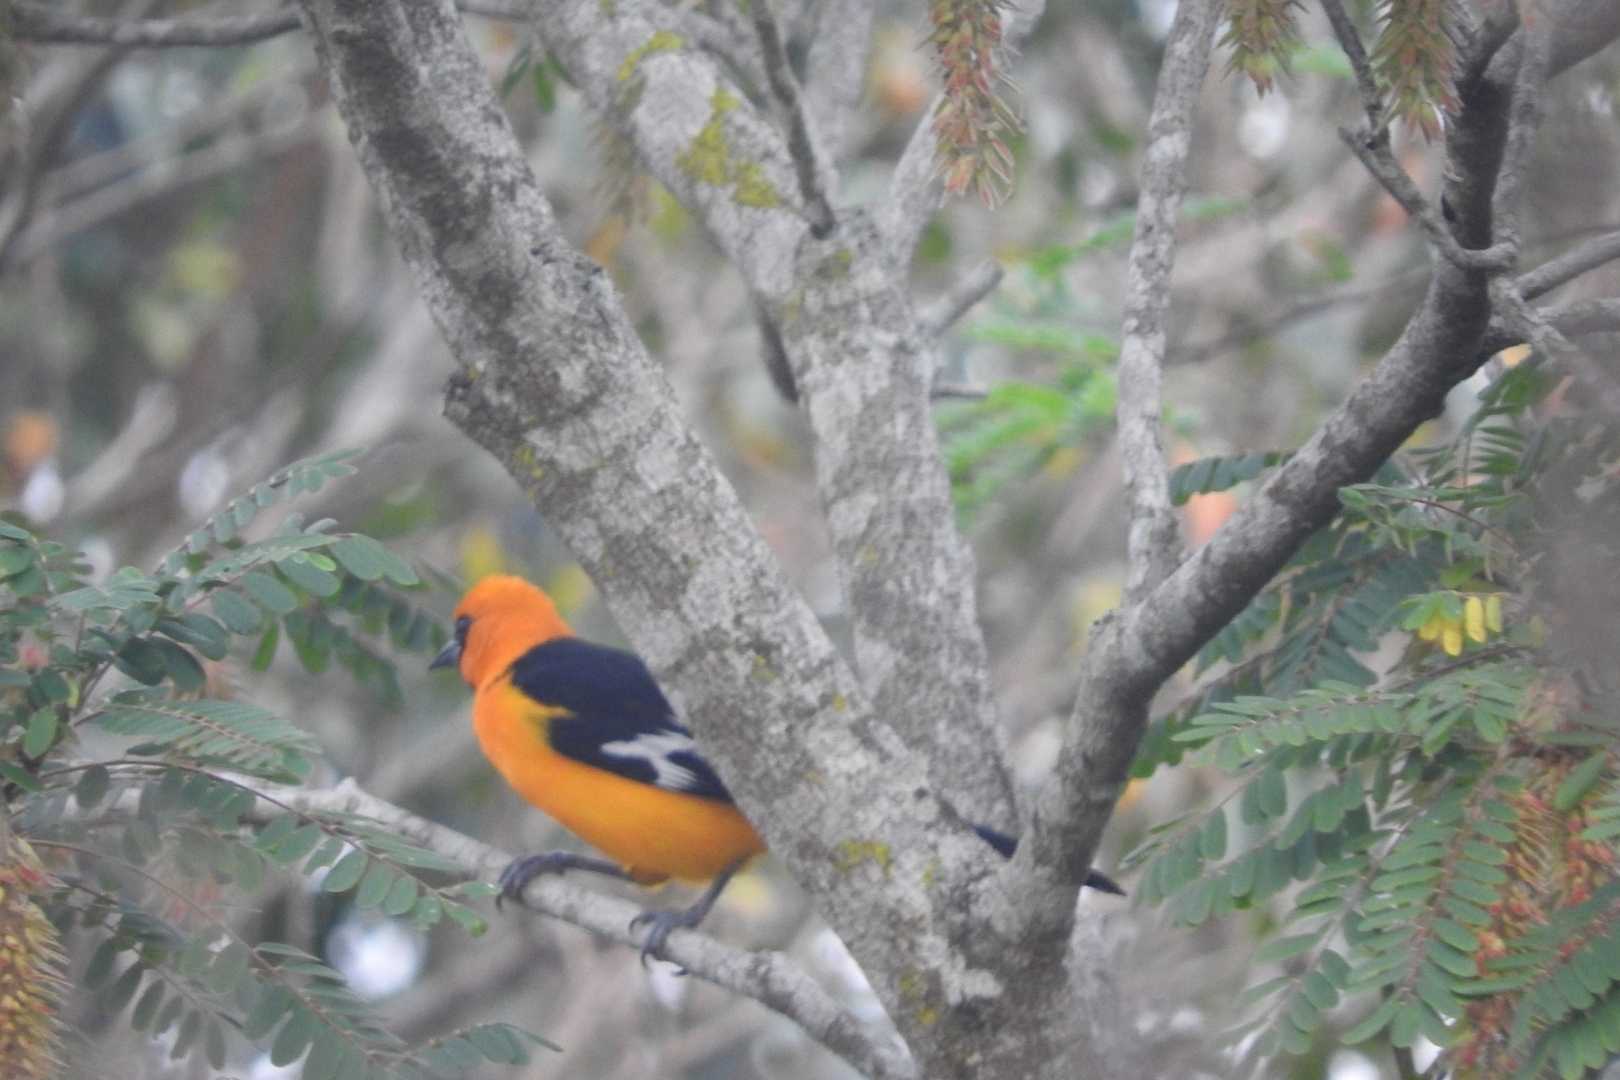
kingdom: Animalia
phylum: Chordata
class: Aves
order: Passeriformes
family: Icteridae
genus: Icterus
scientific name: Icterus gularis
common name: Altamira oriole
